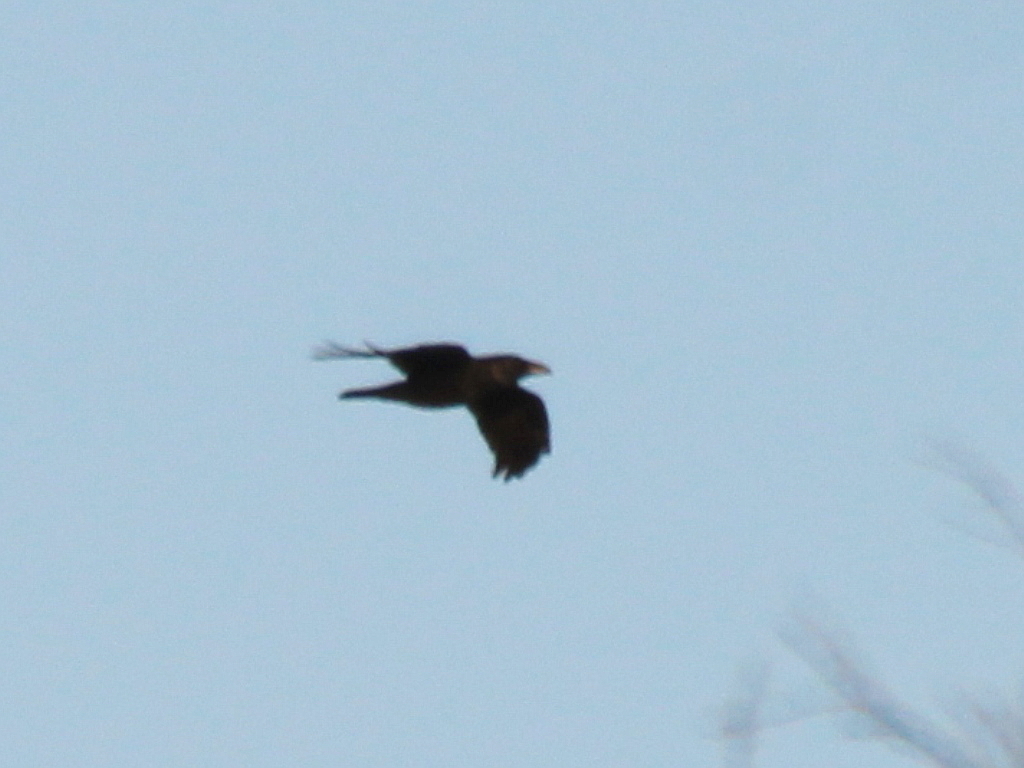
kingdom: Animalia
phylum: Chordata
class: Aves
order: Passeriformes
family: Corvidae
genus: Corvus
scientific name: Corvus corax
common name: Common raven
